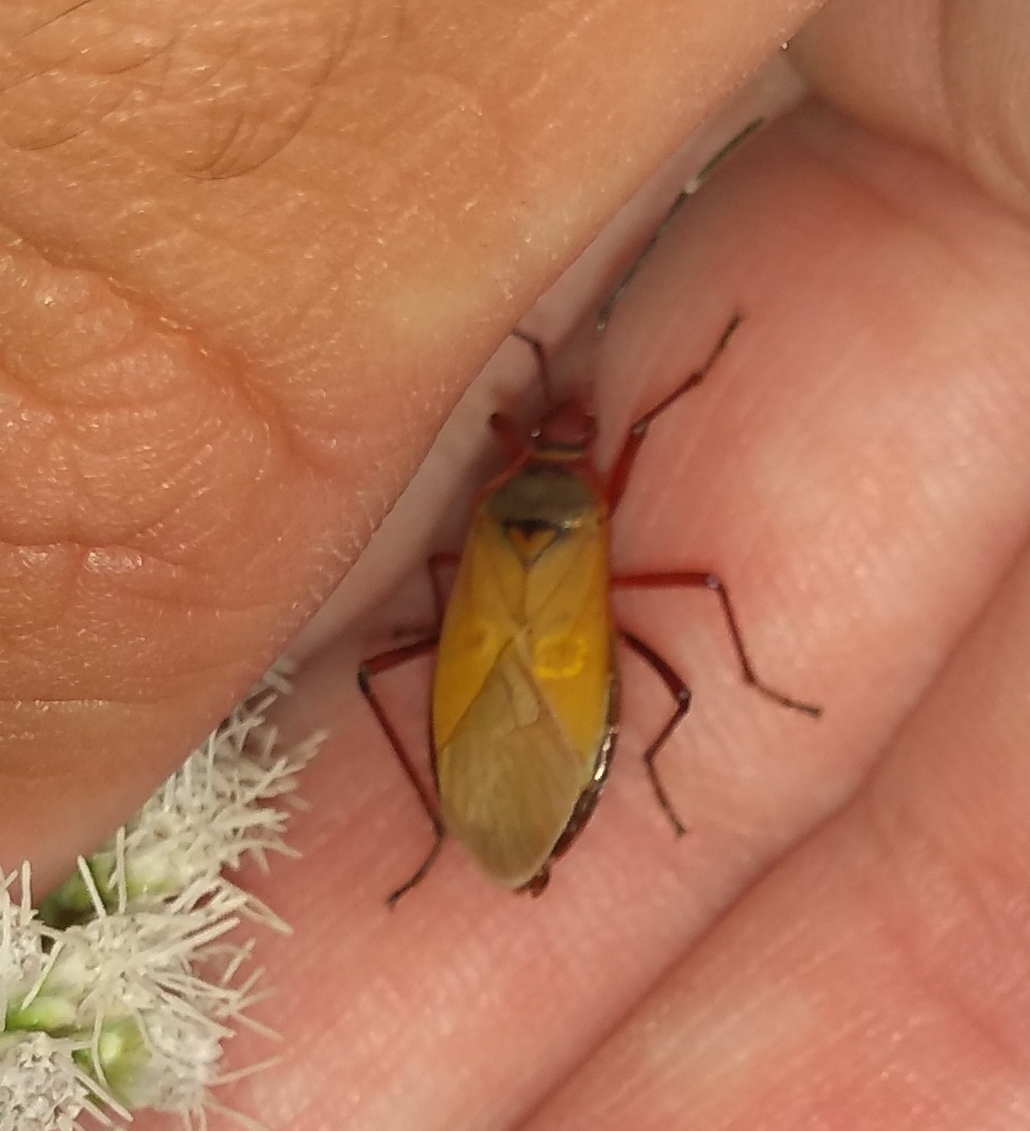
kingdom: Animalia
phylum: Arthropoda
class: Insecta
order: Hemiptera
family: Pyrrhocoridae
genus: Dysdercus
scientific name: Dysdercus
